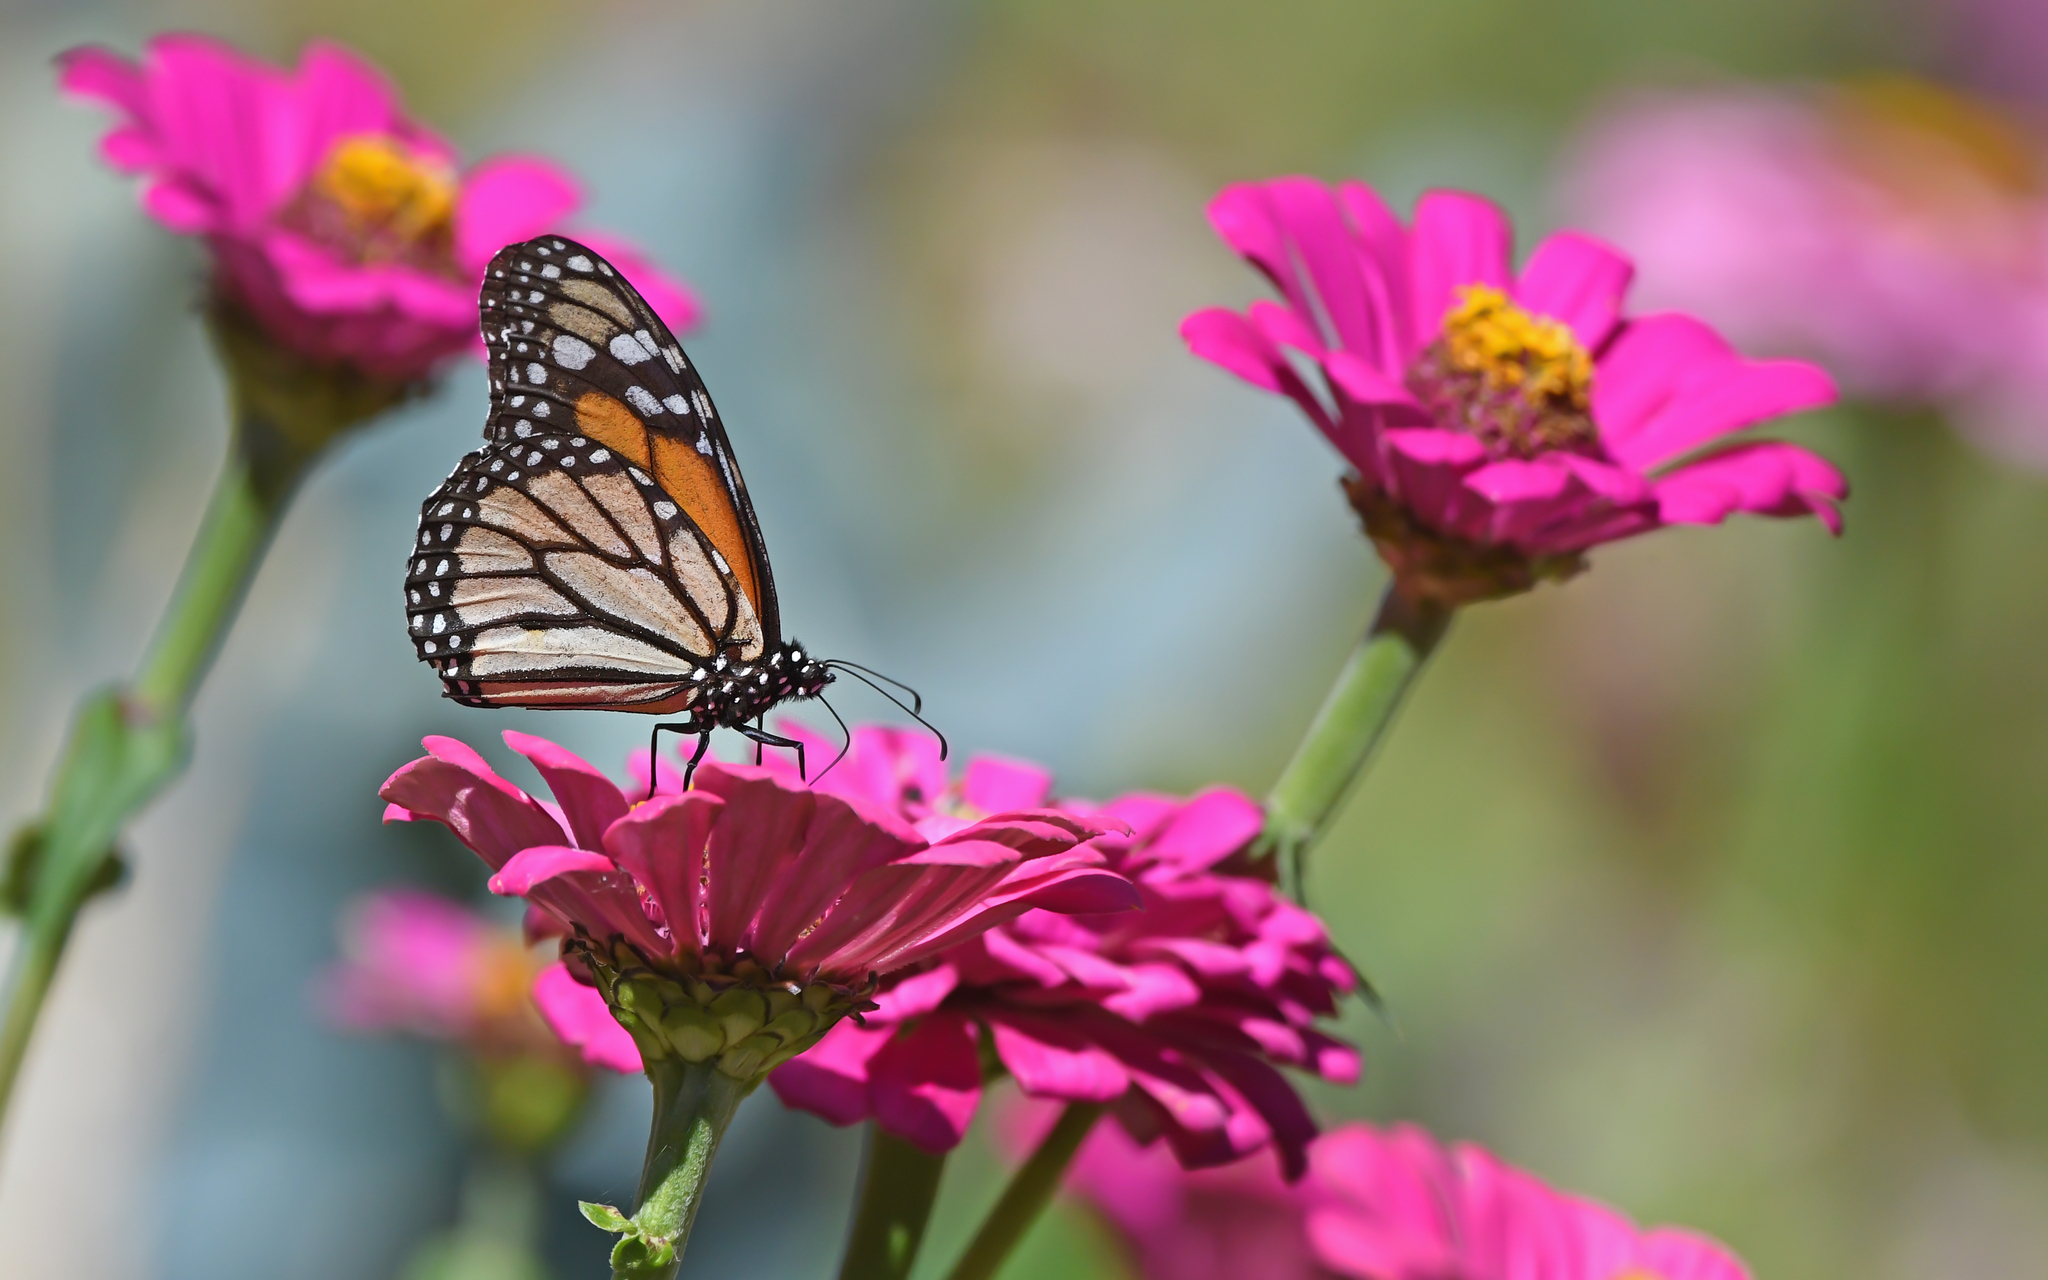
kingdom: Animalia
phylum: Arthropoda
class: Insecta
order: Lepidoptera
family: Nymphalidae
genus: Danaus
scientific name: Danaus plexippus
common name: Monarch
